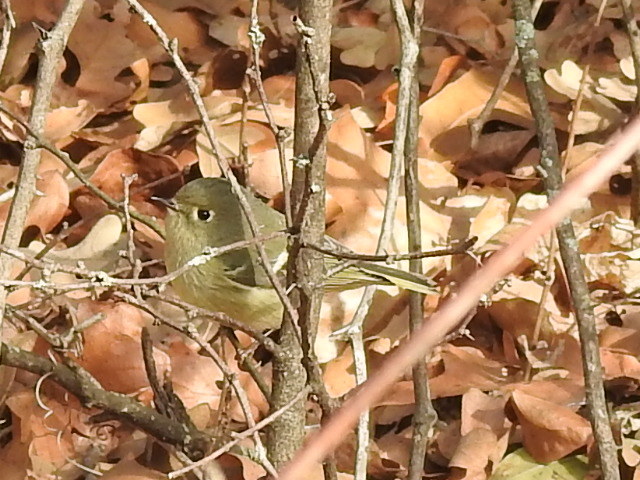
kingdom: Animalia
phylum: Chordata
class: Aves
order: Passeriformes
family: Regulidae
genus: Regulus
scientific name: Regulus calendula
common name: Ruby-crowned kinglet
